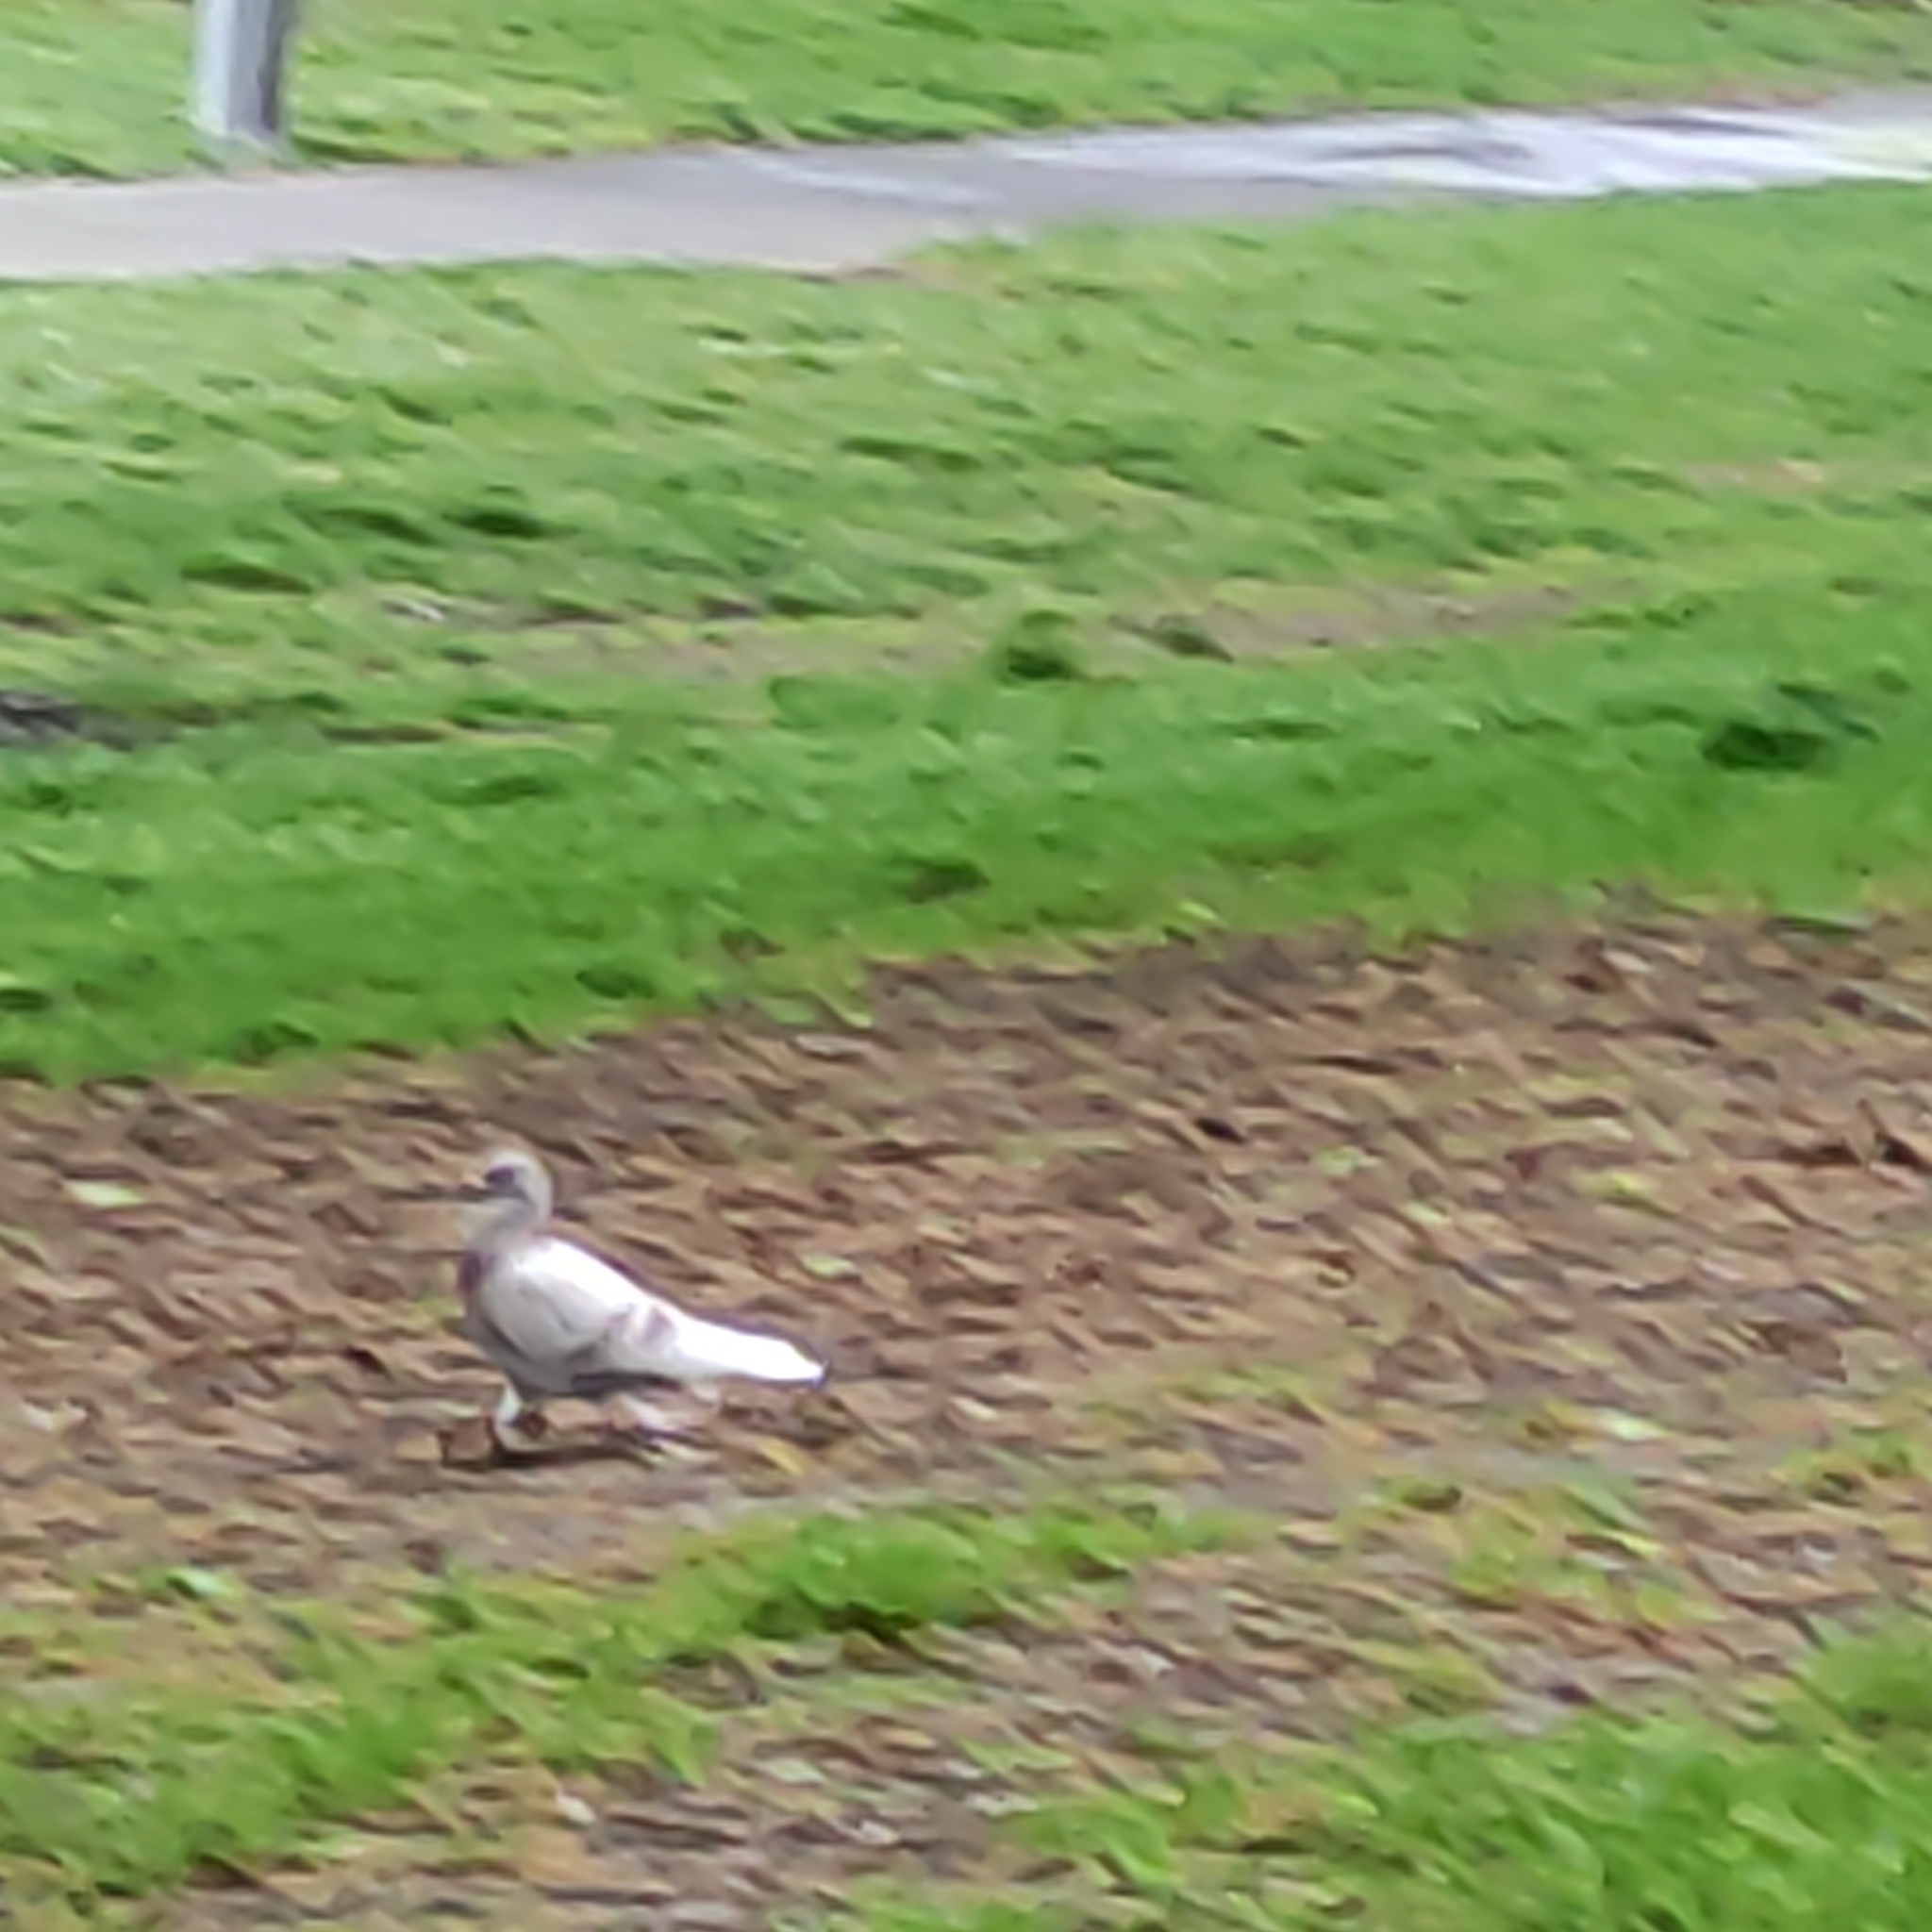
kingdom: Animalia
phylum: Chordata
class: Aves
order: Columbiformes
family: Columbidae
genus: Columba
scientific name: Columba livia
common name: Rock pigeon
